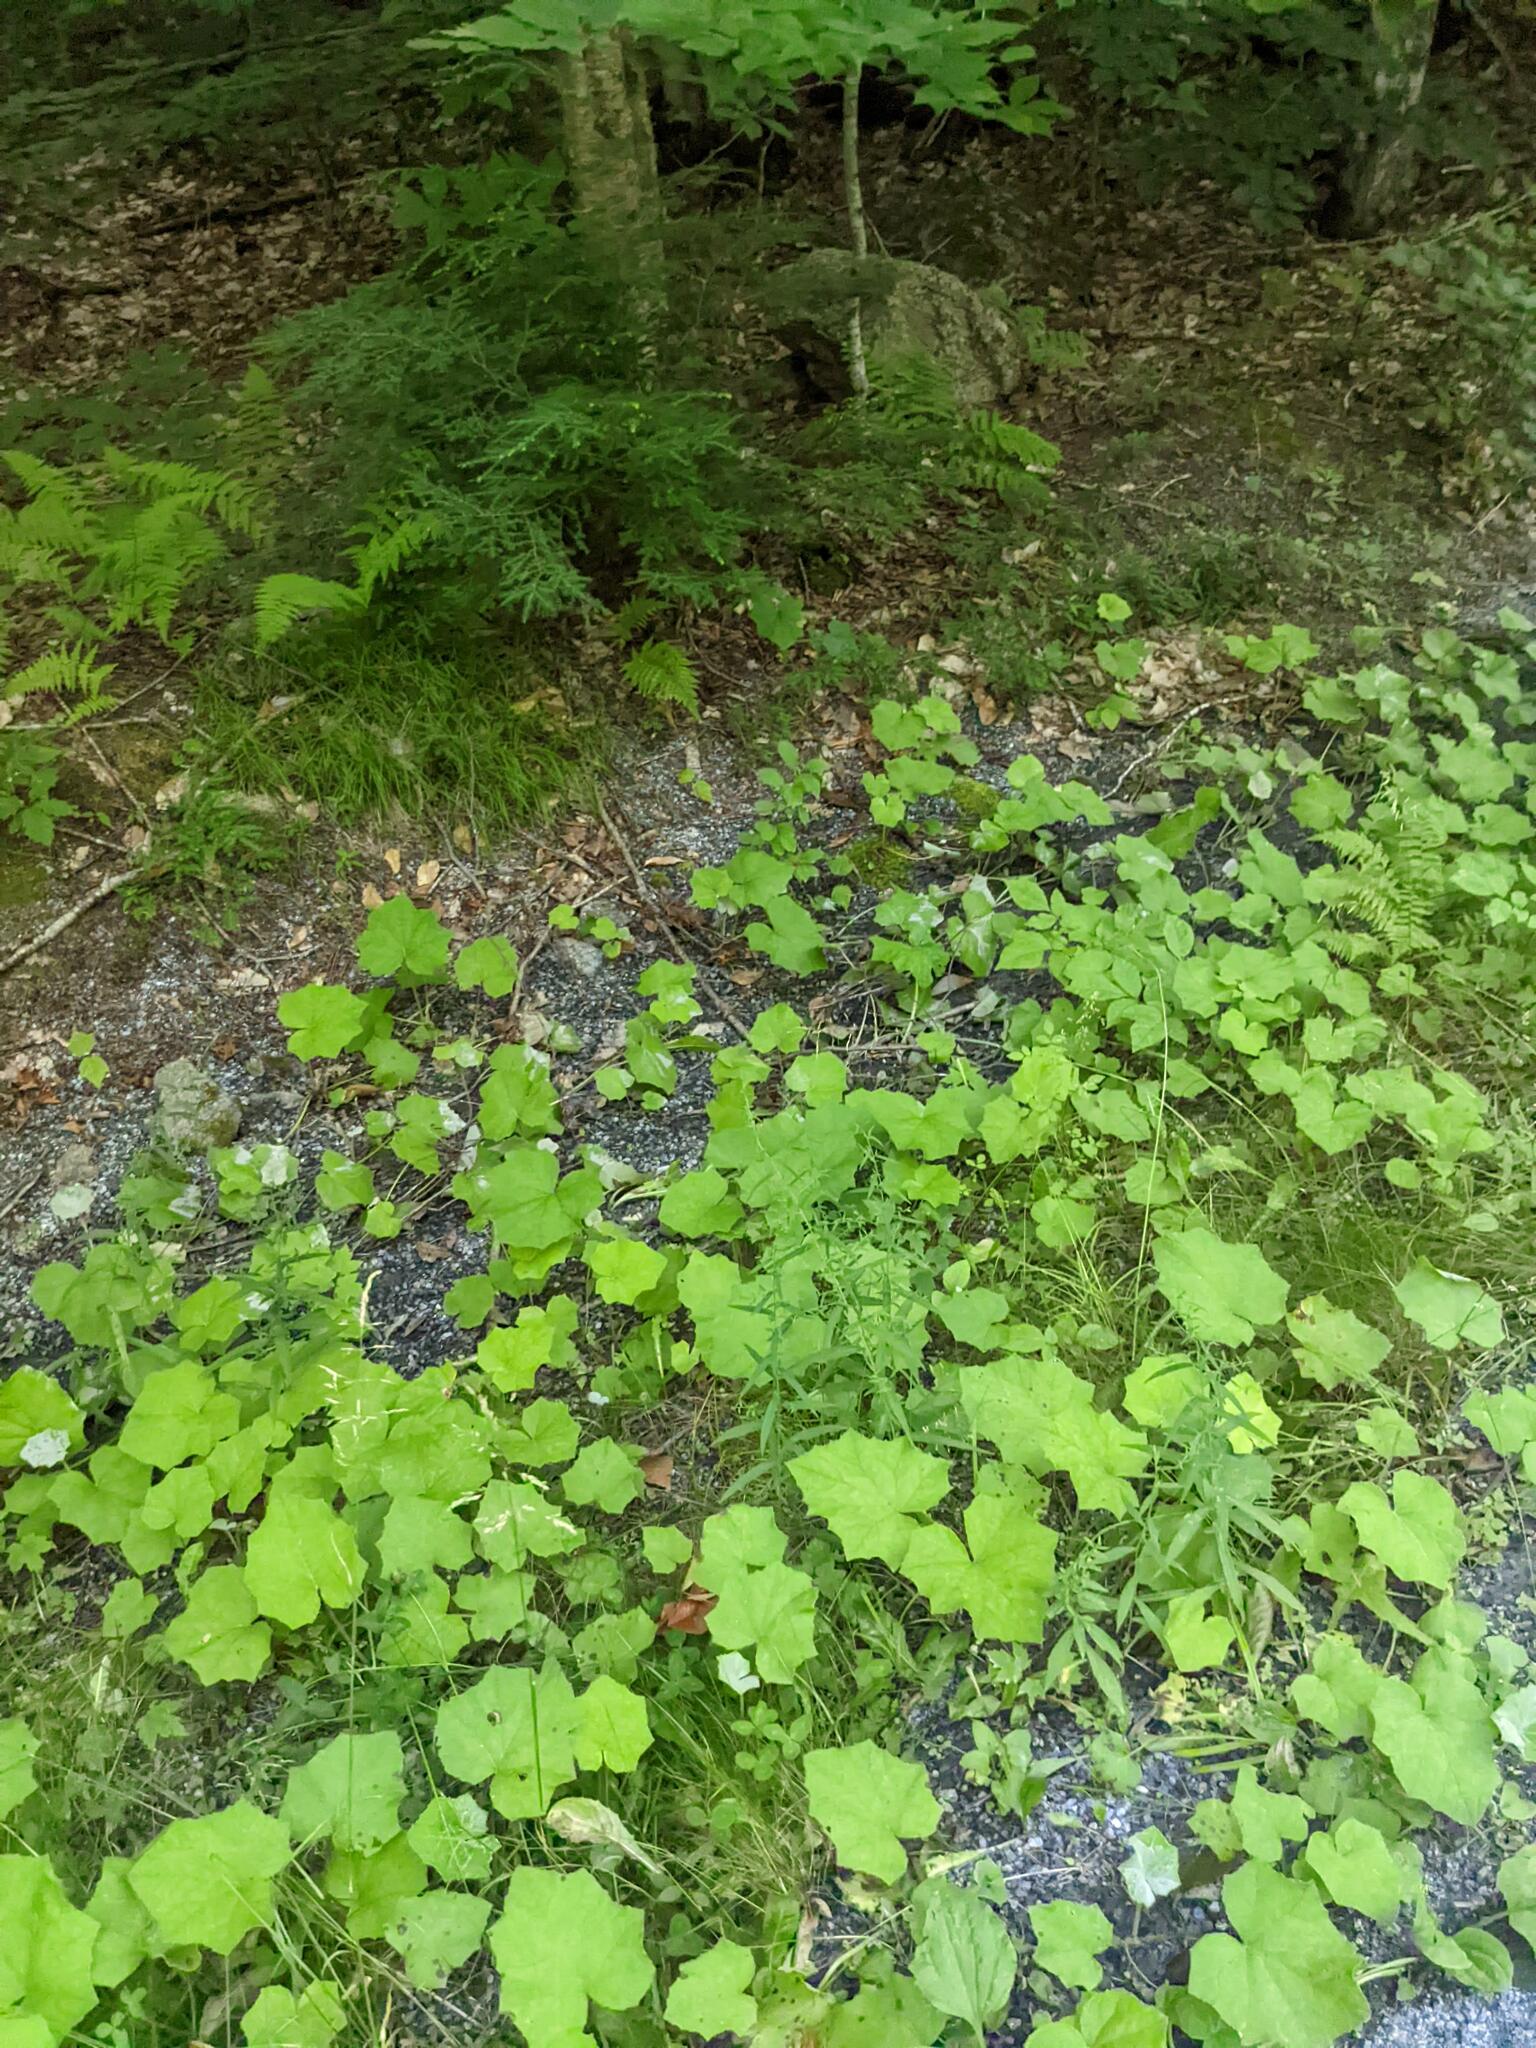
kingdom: Plantae
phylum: Tracheophyta
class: Magnoliopsida
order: Asterales
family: Asteraceae
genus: Tussilago
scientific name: Tussilago farfara
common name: Coltsfoot
